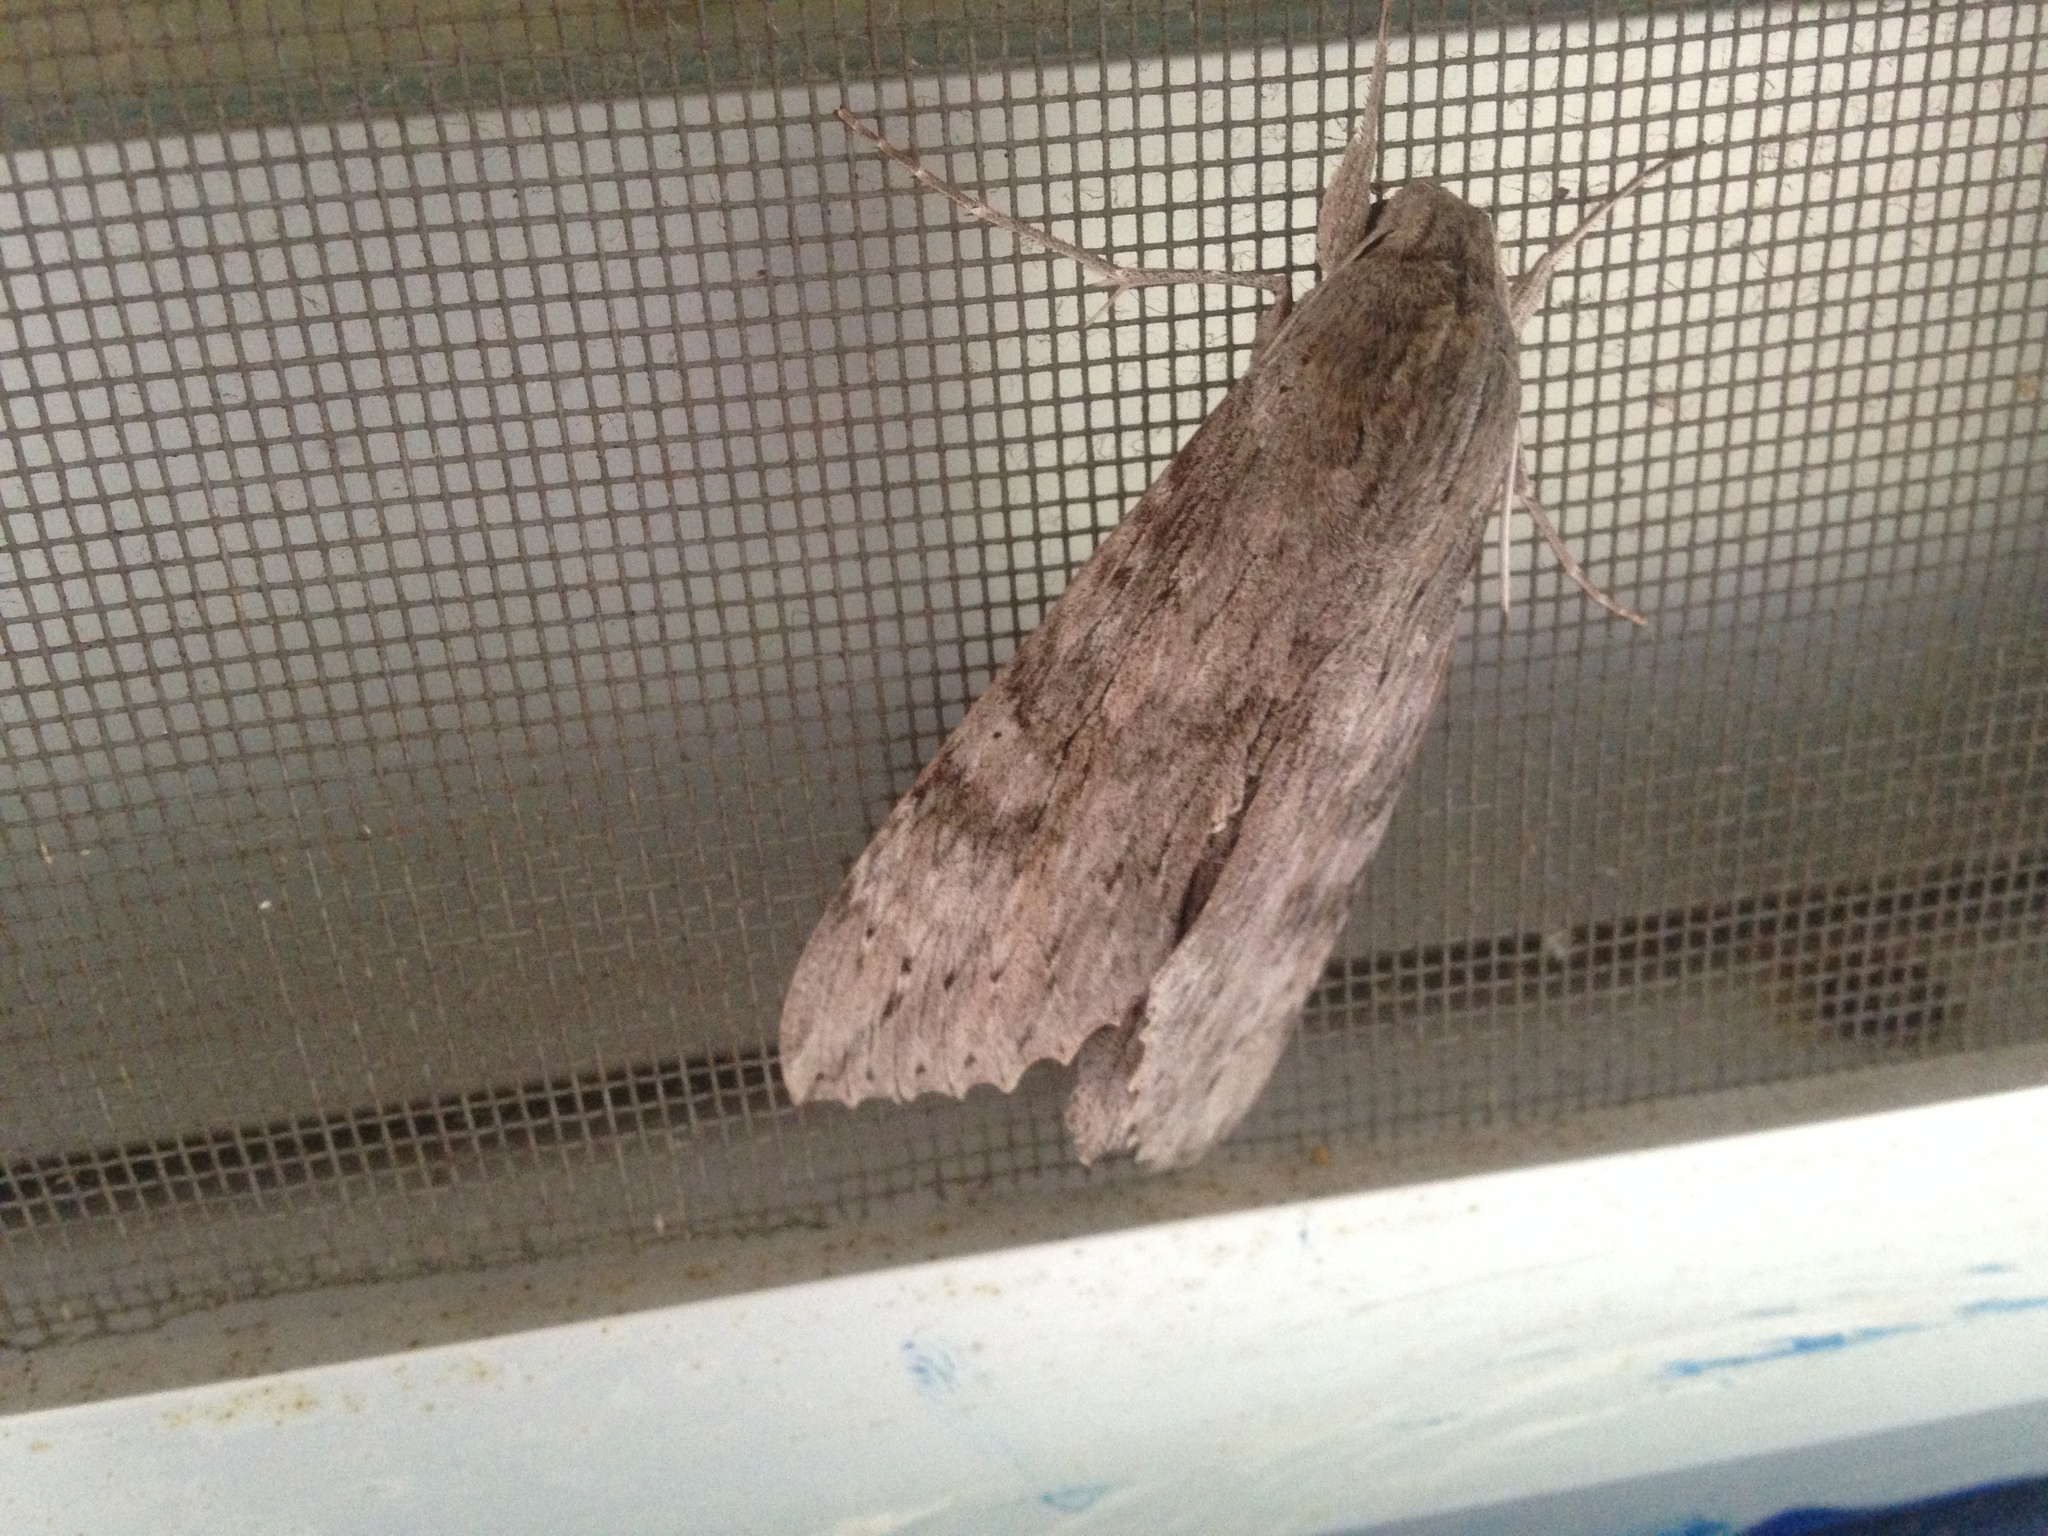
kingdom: Animalia
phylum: Arthropoda
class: Insecta
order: Lepidoptera
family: Sphingidae
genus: Erinnyis
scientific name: Erinnyis ello
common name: Ello sphinx
